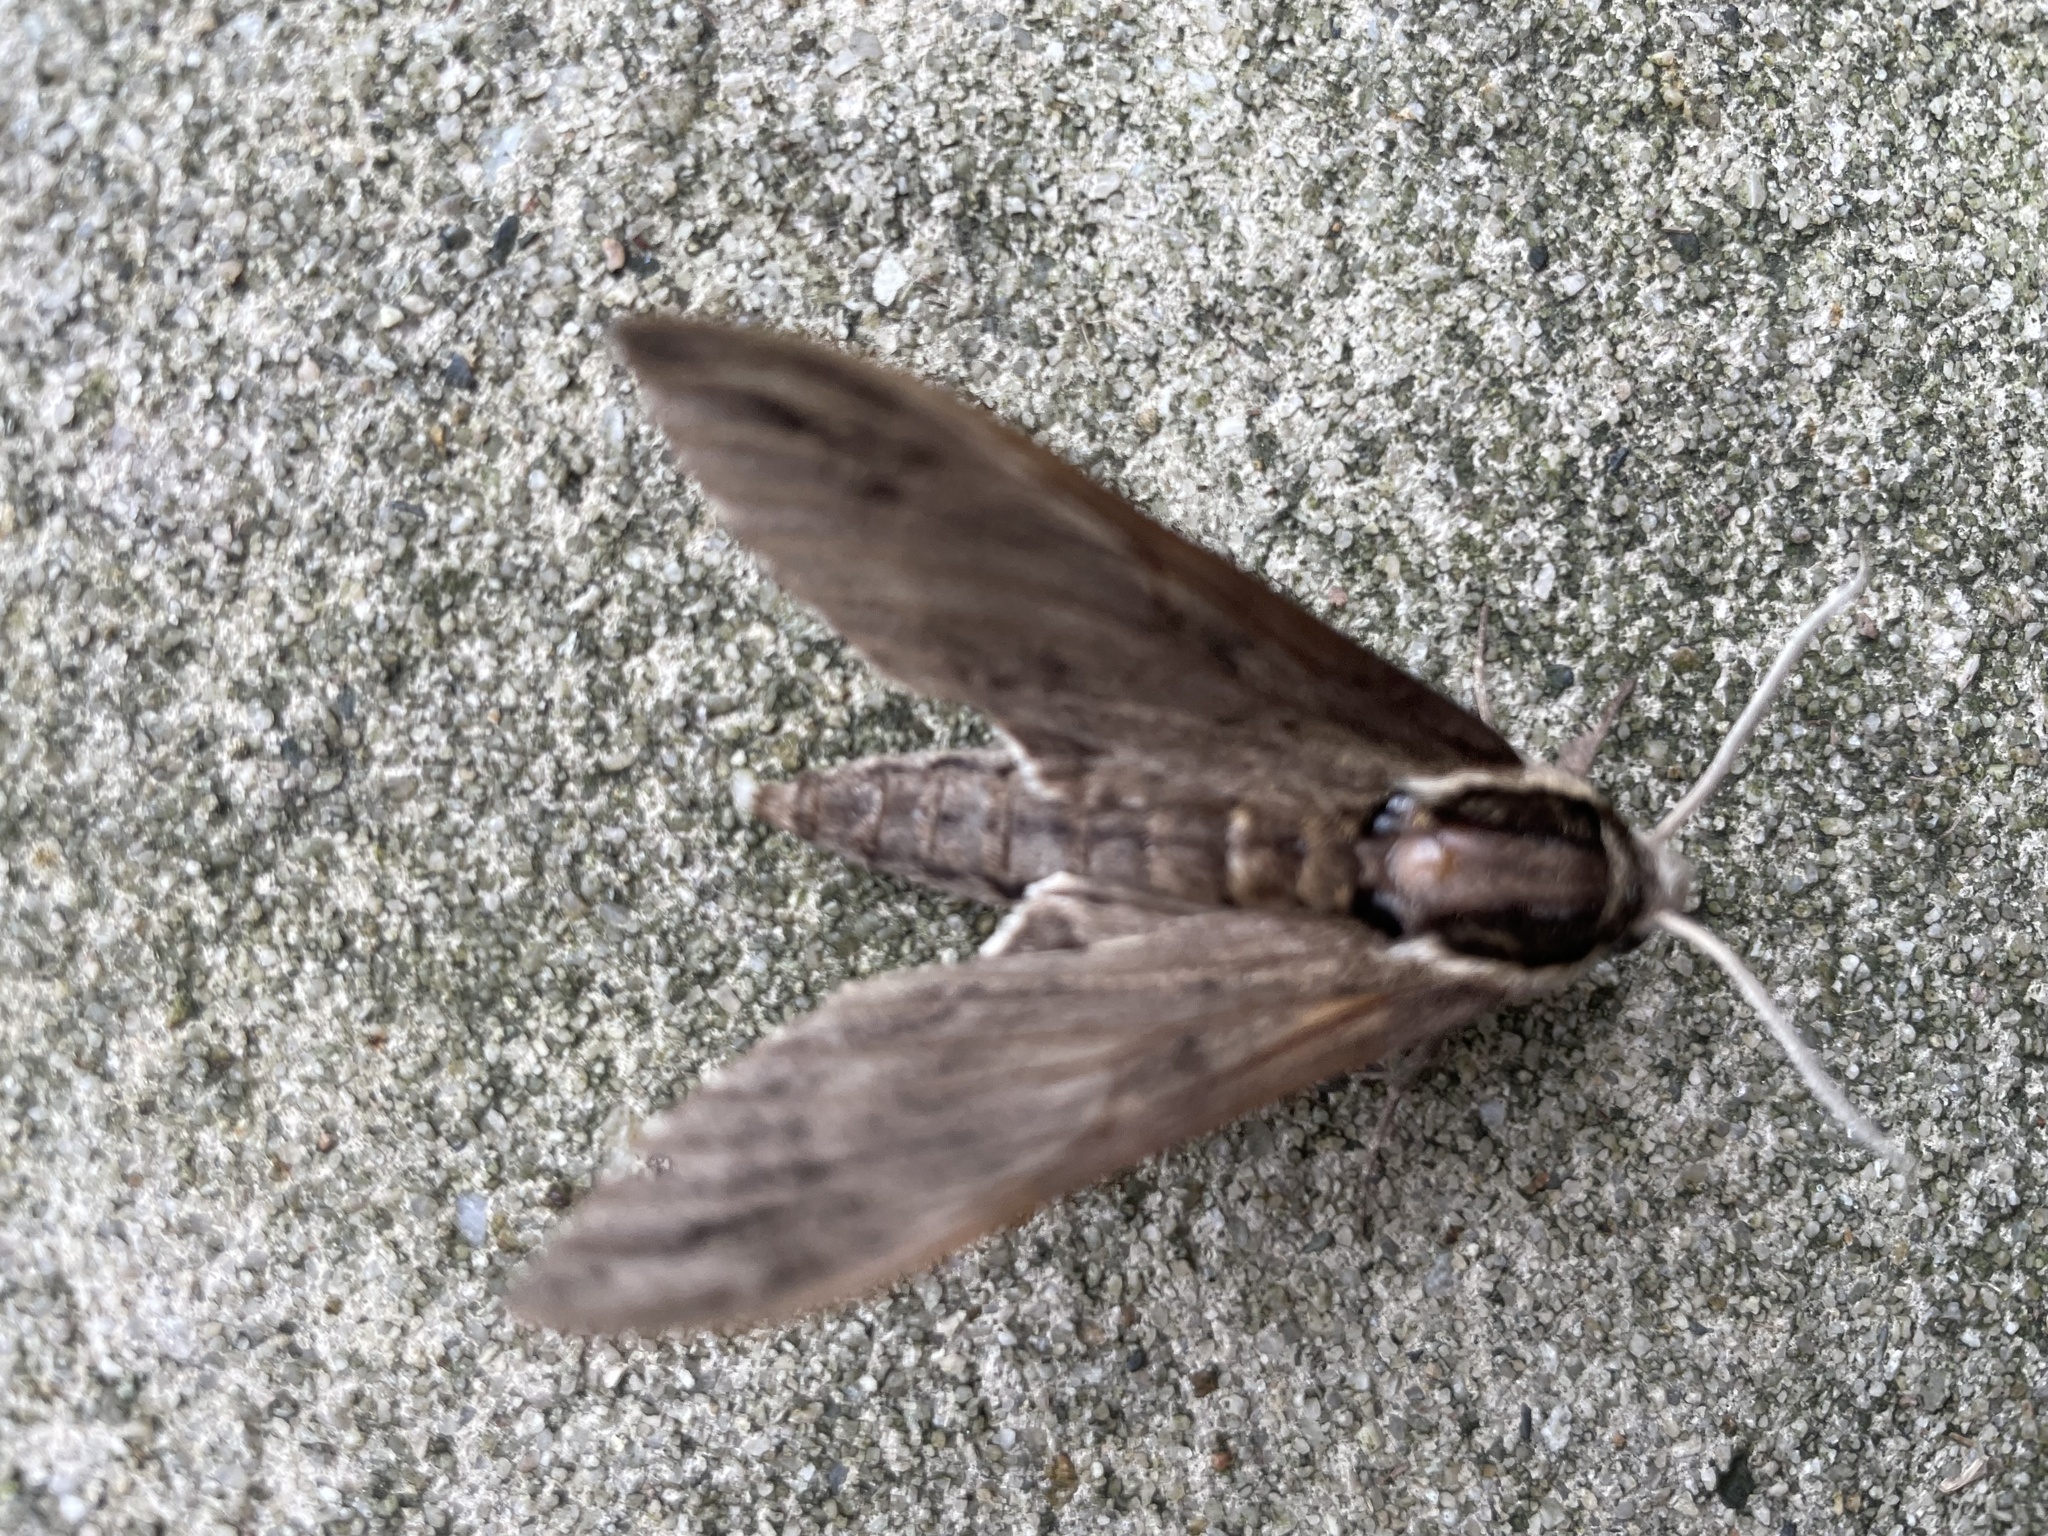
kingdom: Animalia
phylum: Arthropoda
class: Insecta
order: Lepidoptera
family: Sphingidae
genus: Ceratomia
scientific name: Ceratomia catalpae
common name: Catalpa hornworm
